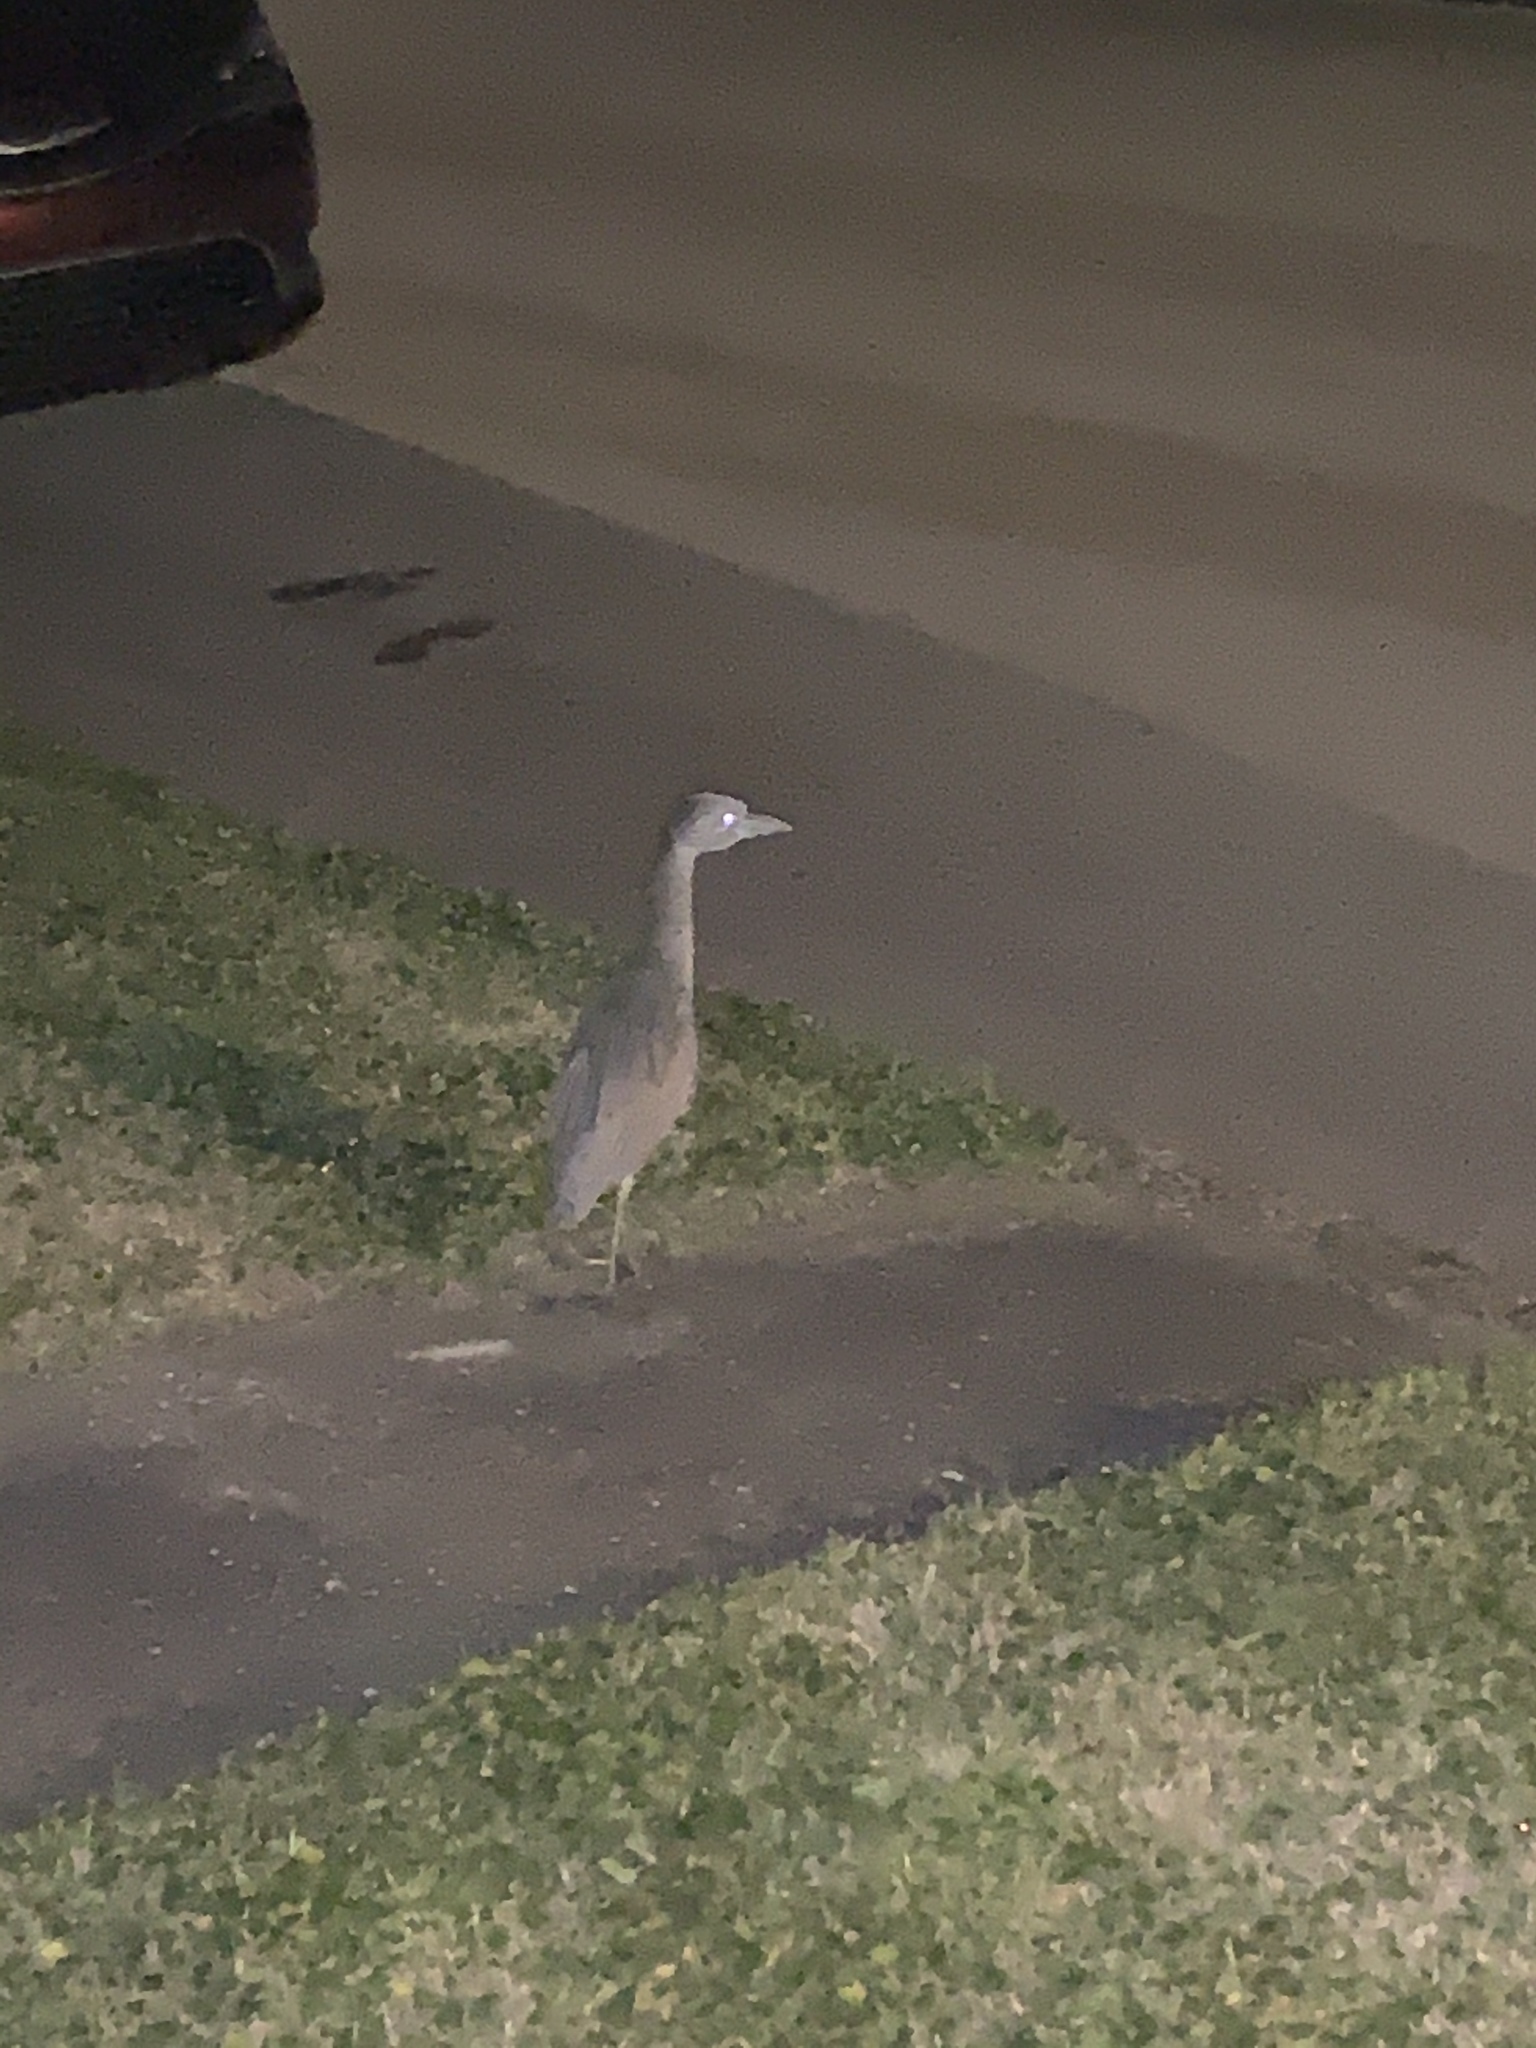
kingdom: Animalia
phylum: Chordata
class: Aves
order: Pelecaniformes
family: Ardeidae
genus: Nyctanassa
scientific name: Nyctanassa violacea
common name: Yellow-crowned night heron
